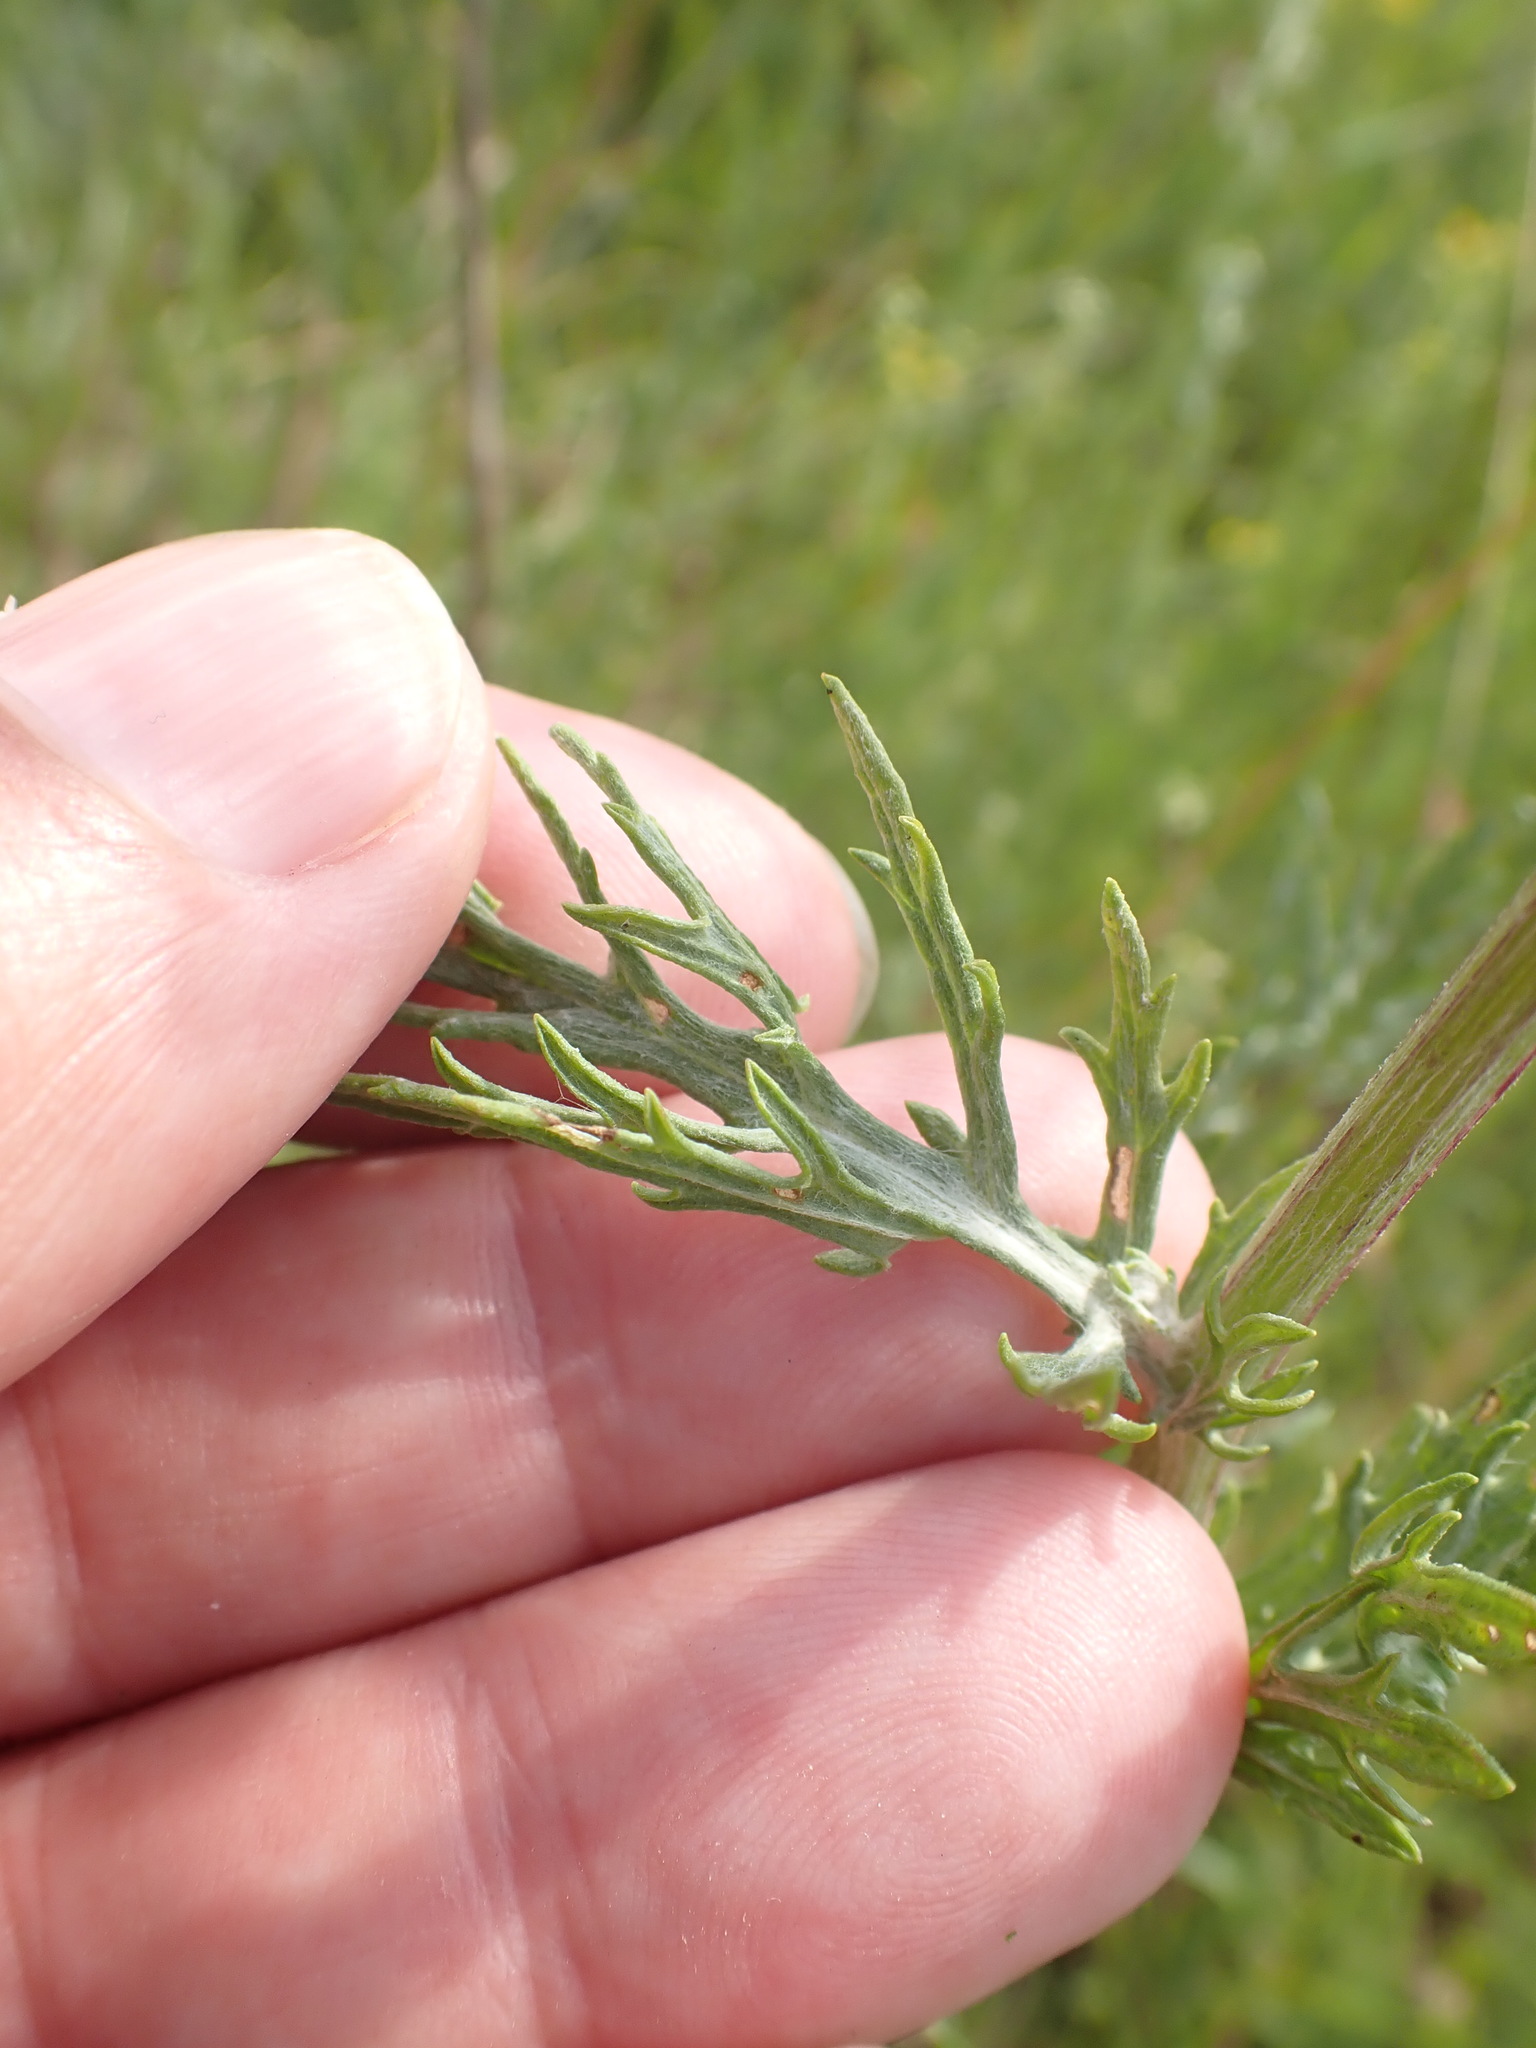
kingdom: Plantae
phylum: Tracheophyta
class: Magnoliopsida
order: Asterales
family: Asteraceae
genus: Jacobaea
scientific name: Jacobaea erucifolia
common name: Hoary ragwort
